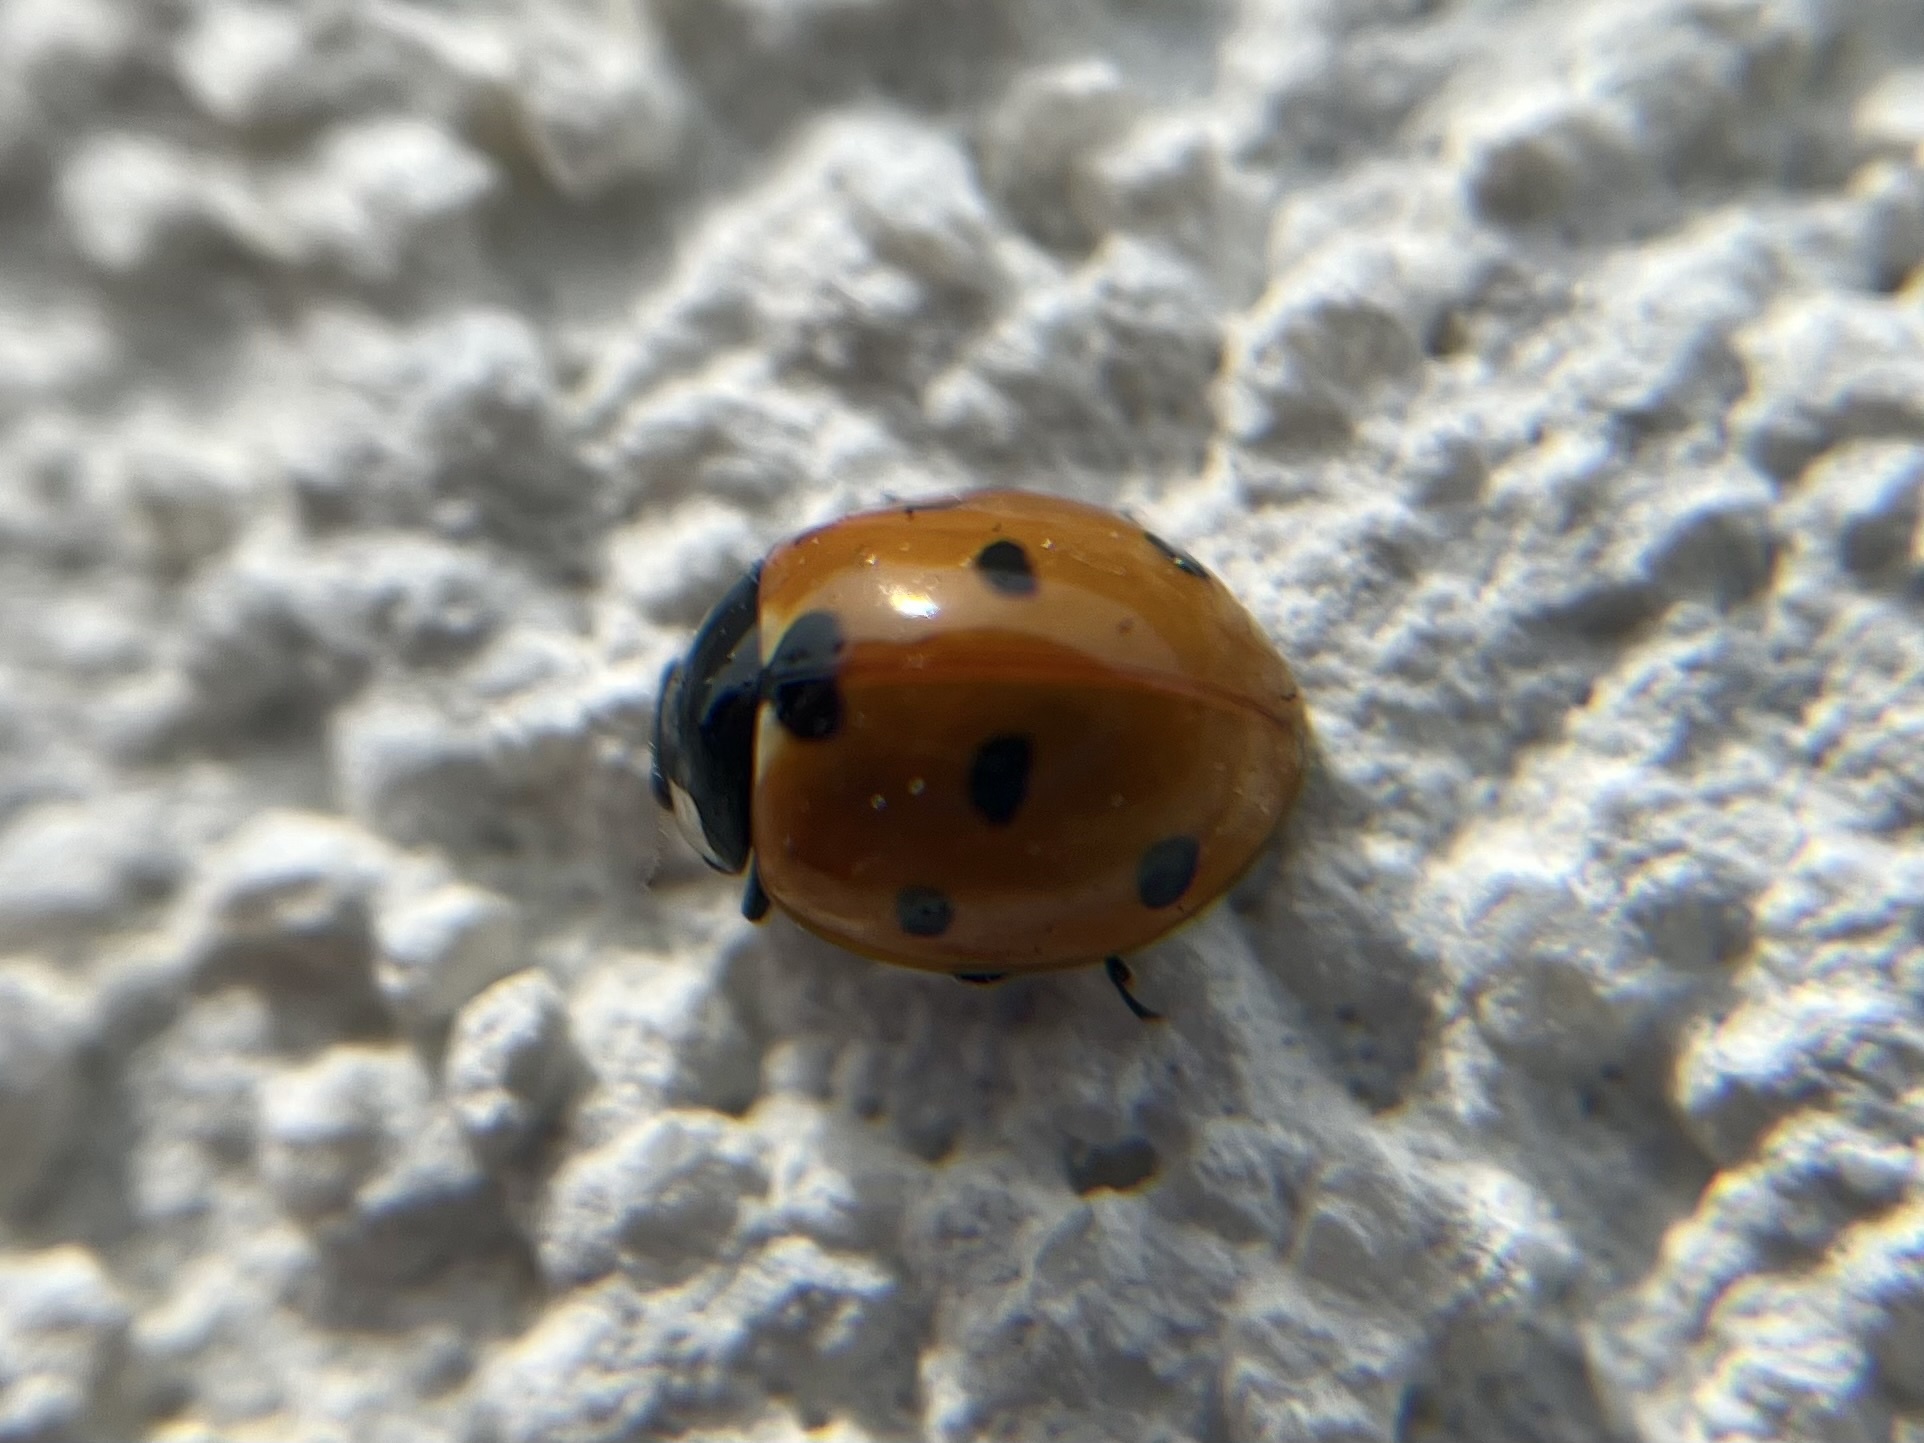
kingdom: Animalia
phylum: Arthropoda
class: Insecta
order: Coleoptera
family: Coccinellidae
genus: Coccinella
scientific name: Coccinella septempunctata
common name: Sevenspotted lady beetle
